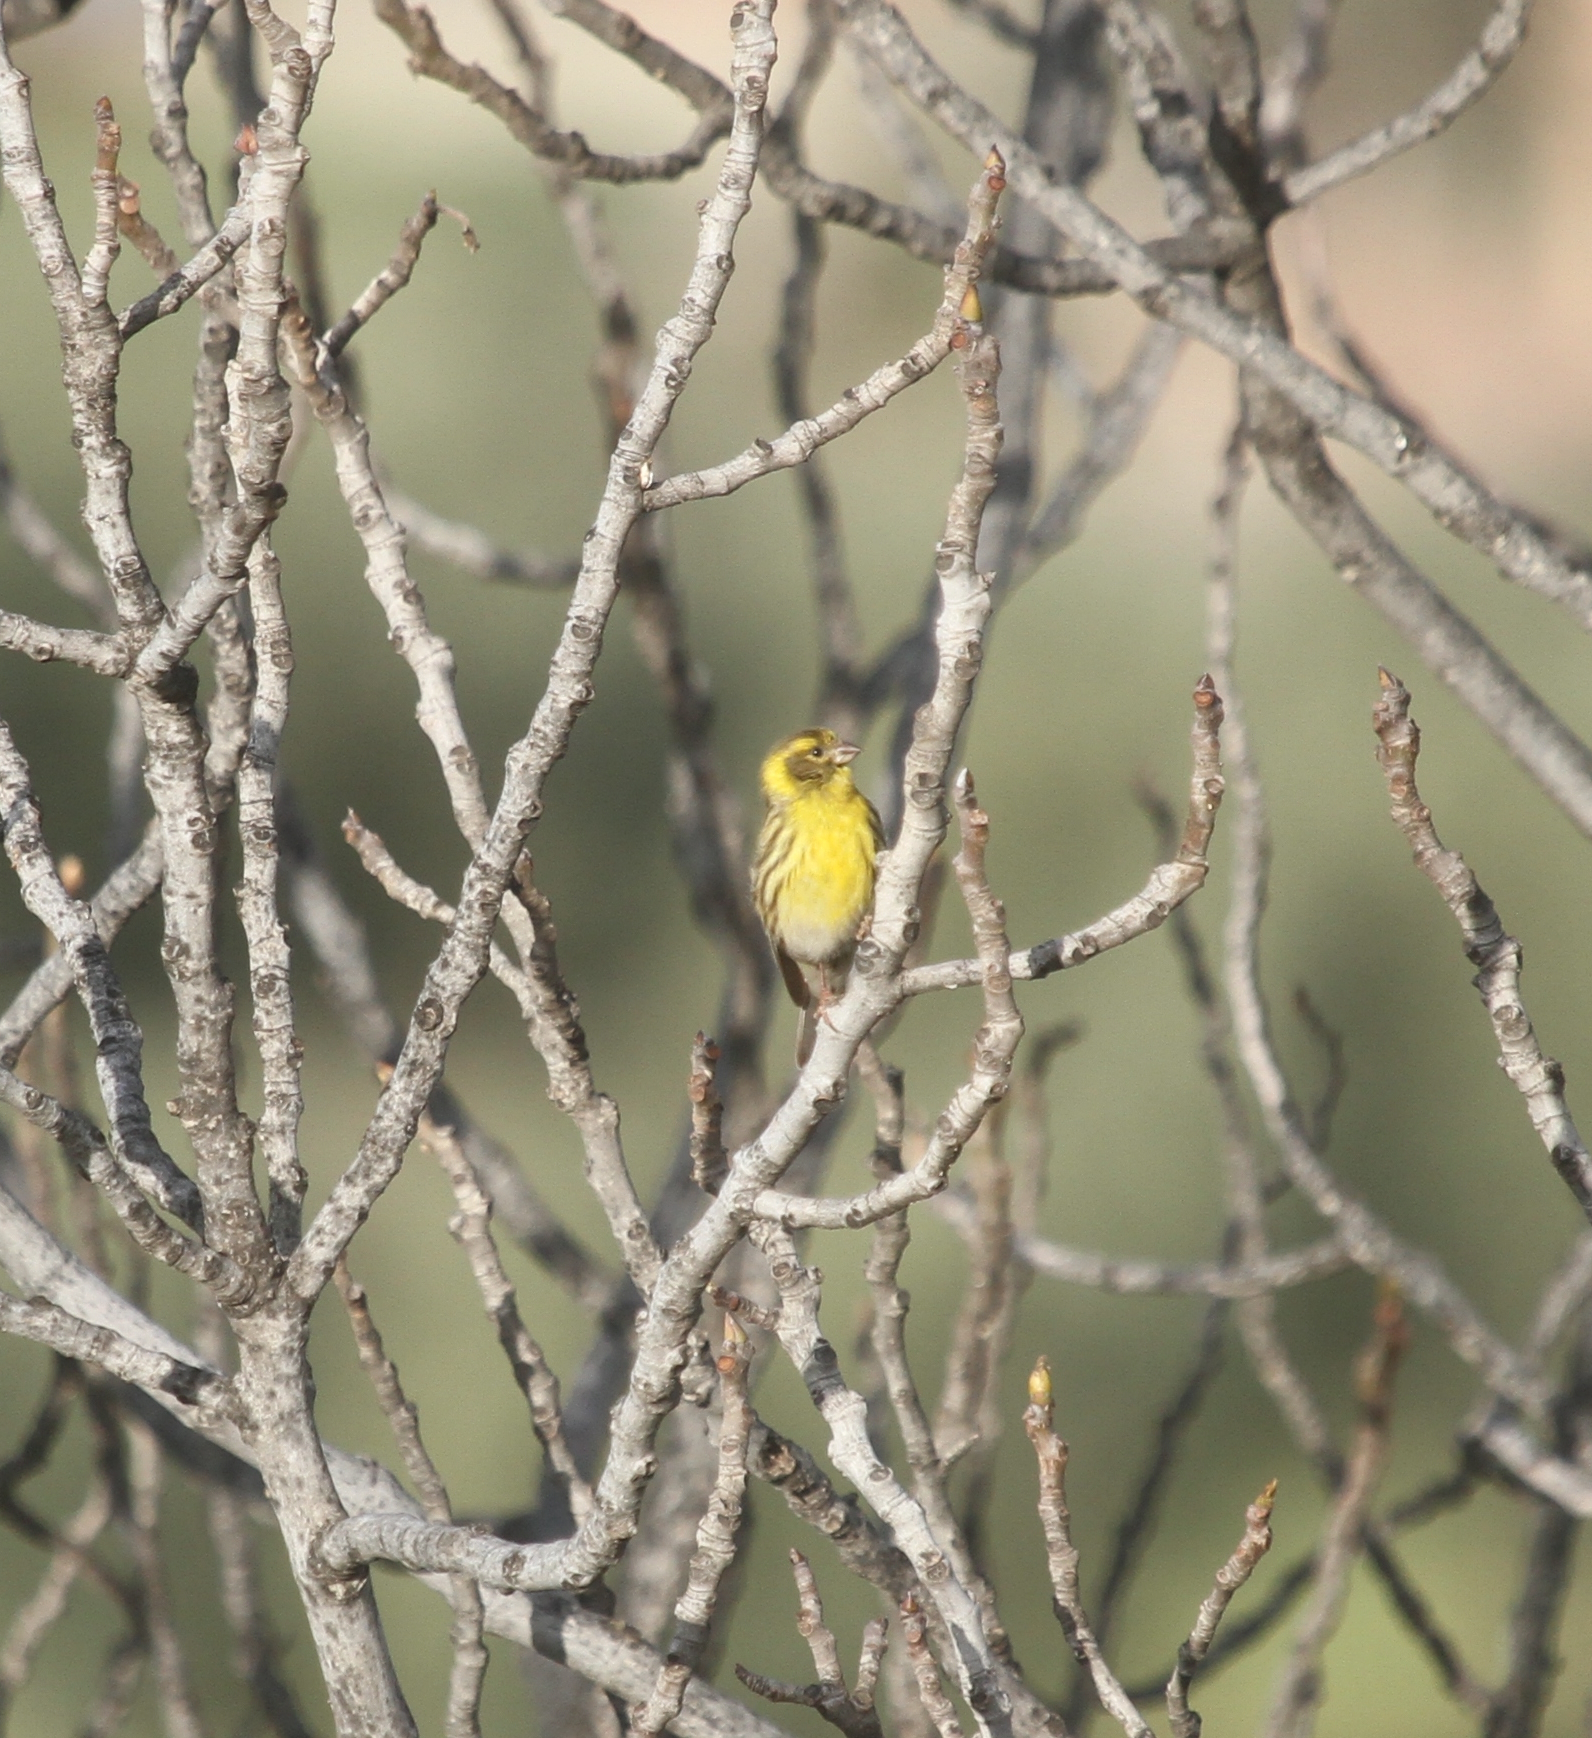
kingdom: Animalia
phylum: Chordata
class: Aves
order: Passeriformes
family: Fringillidae
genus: Serinus
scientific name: Serinus serinus
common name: European serin
